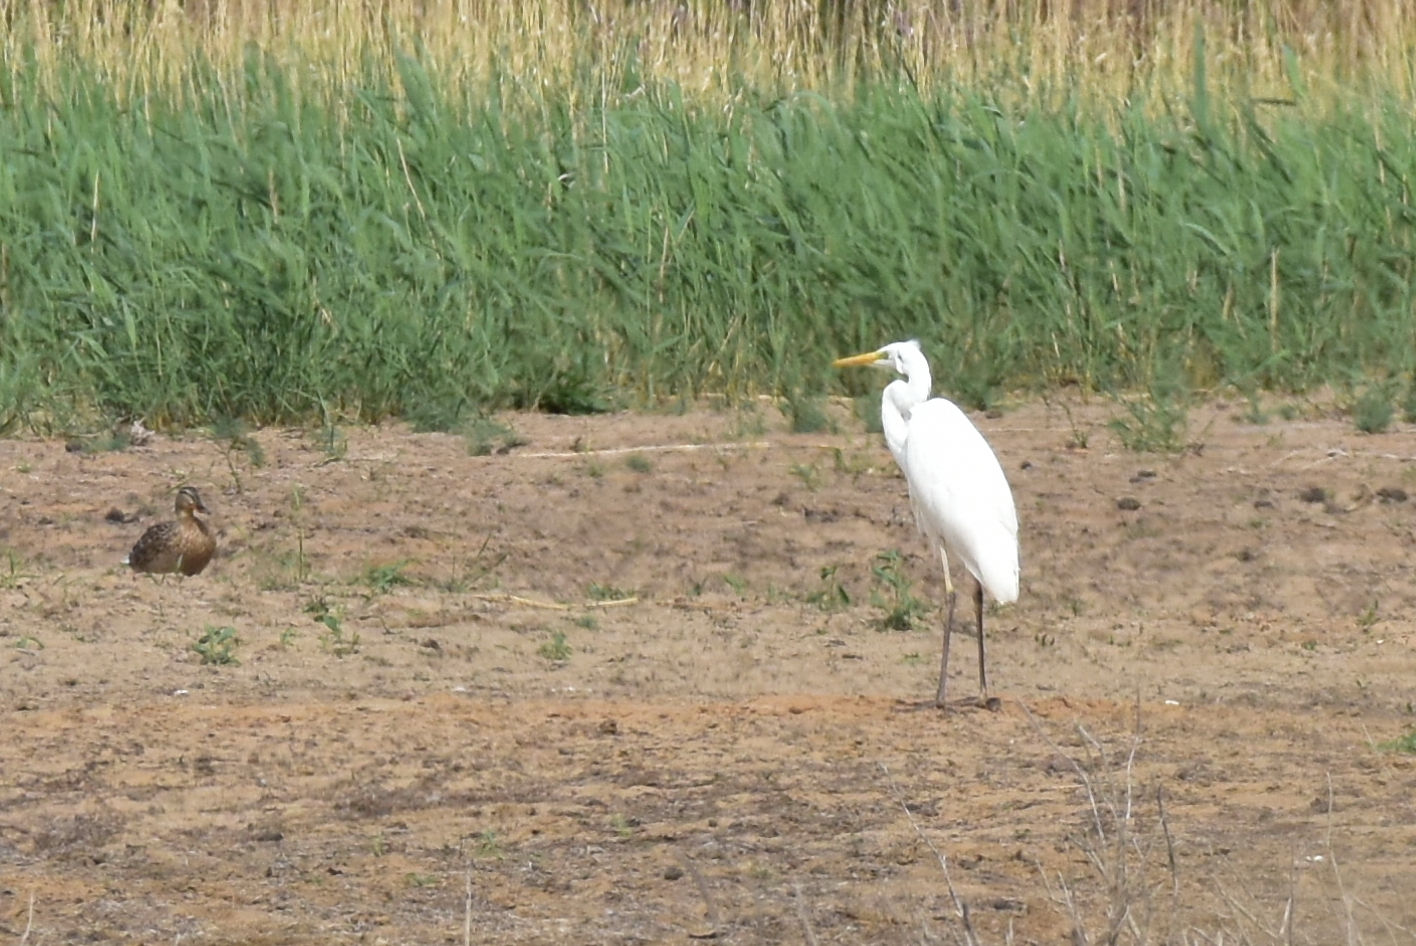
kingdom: Animalia
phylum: Chordata
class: Aves
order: Pelecaniformes
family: Ardeidae
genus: Ardea
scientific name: Ardea alba
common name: Great egret
